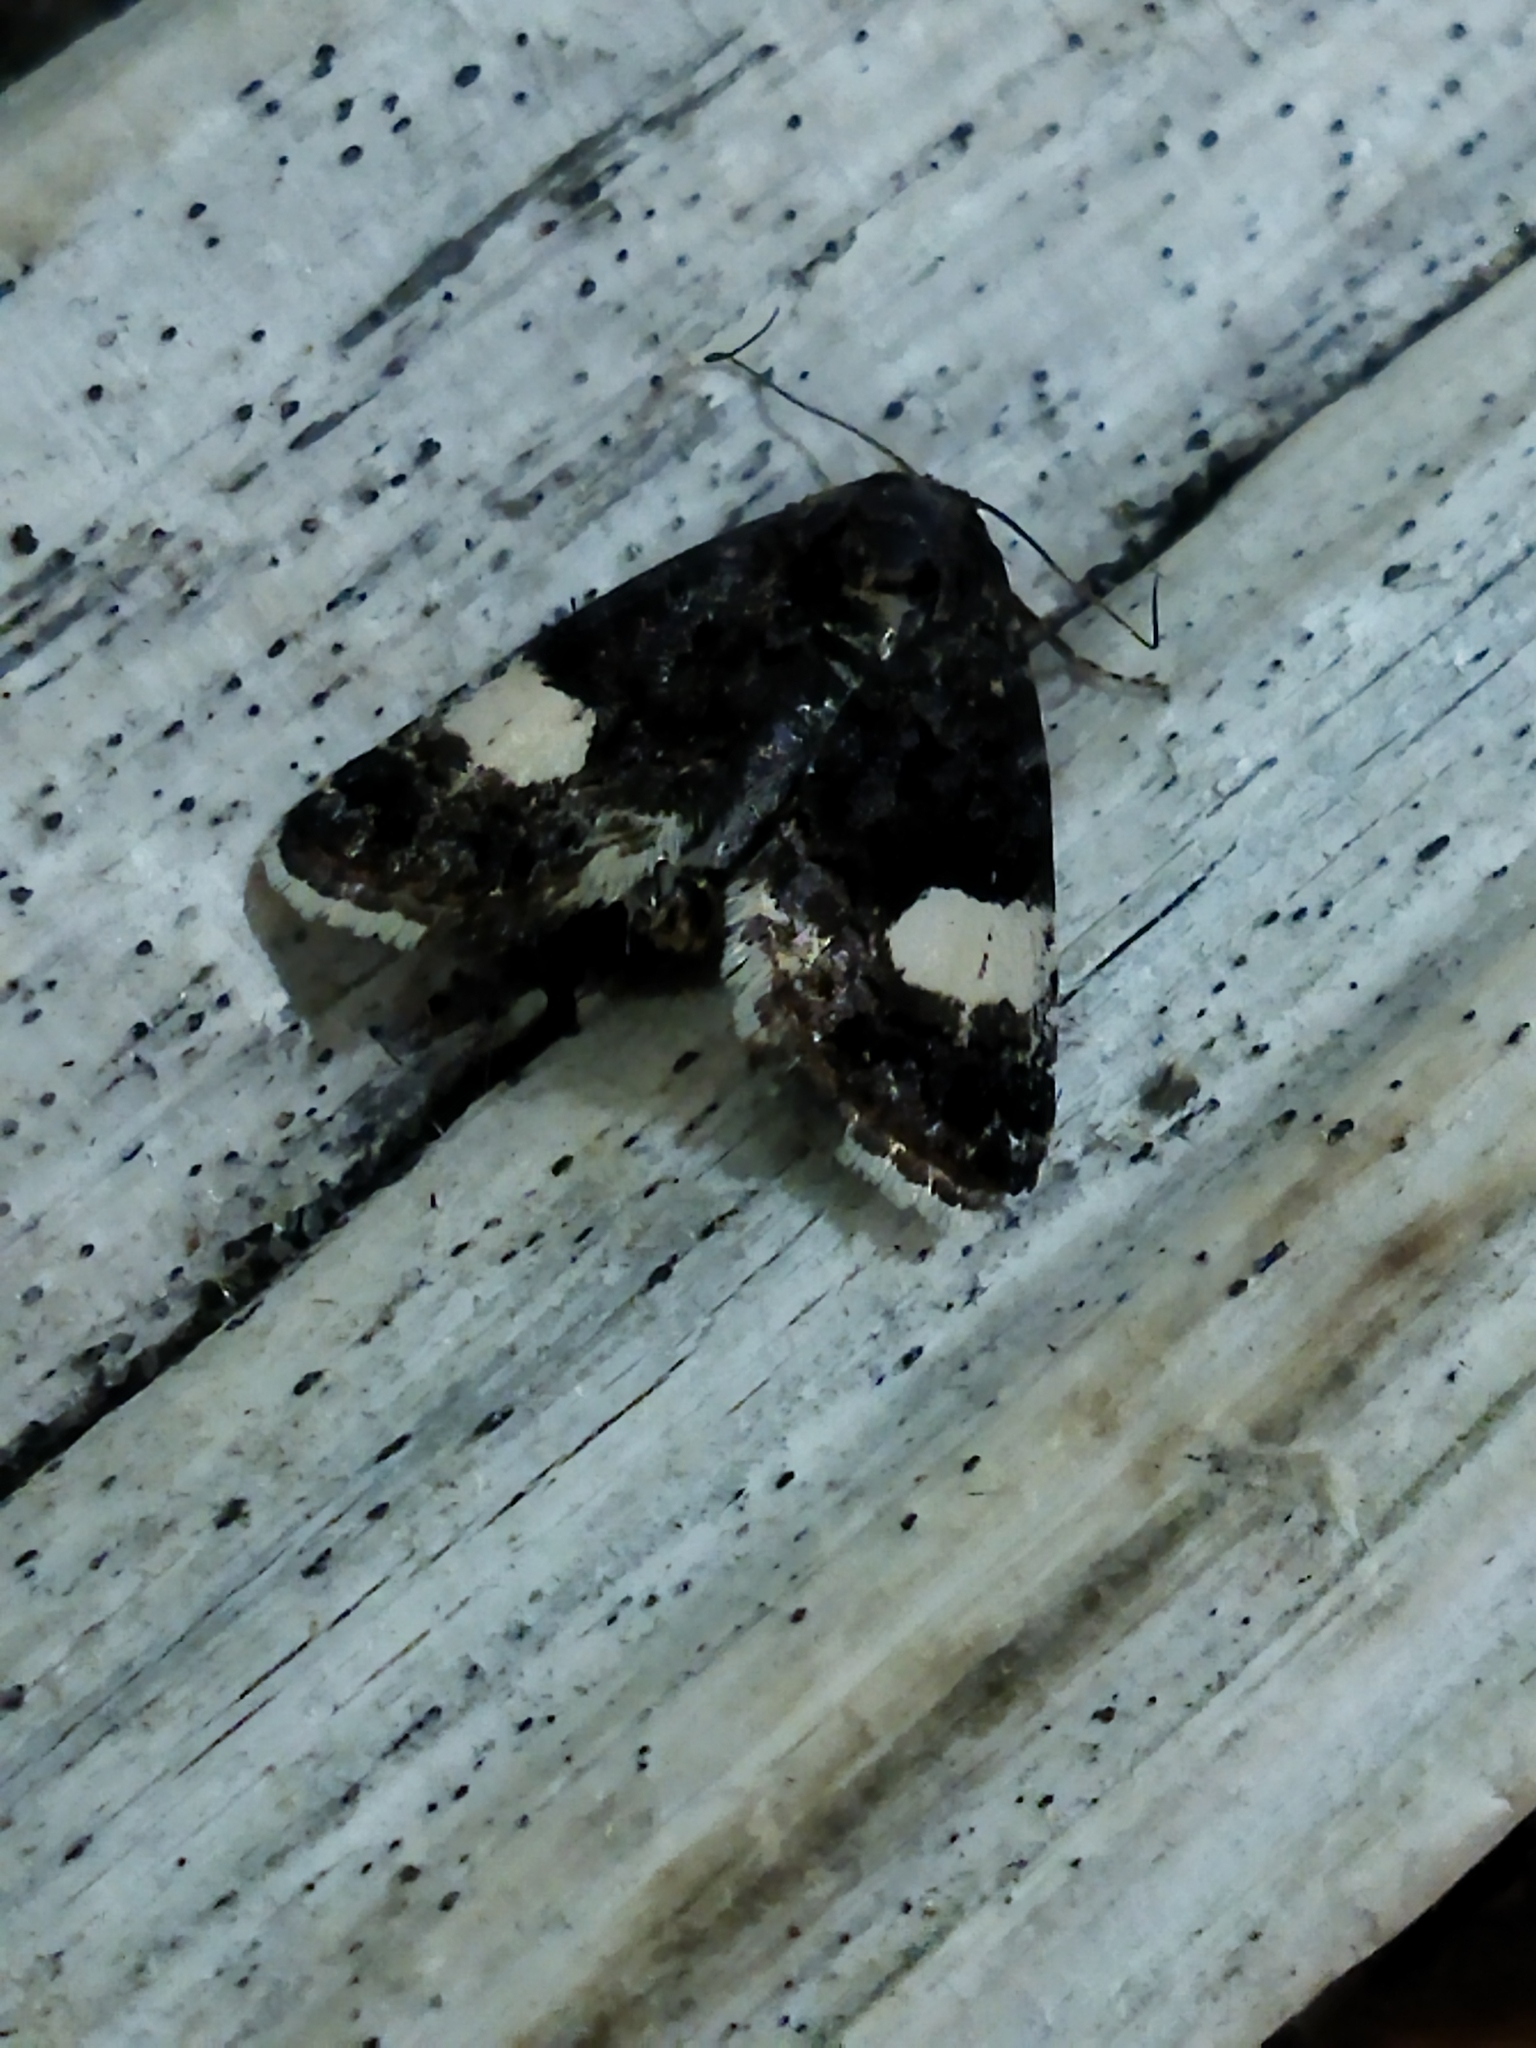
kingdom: Animalia
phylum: Arthropoda
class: Insecta
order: Lepidoptera
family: Erebidae
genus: Tyta
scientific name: Tyta luctuosa
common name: Four-spotted
